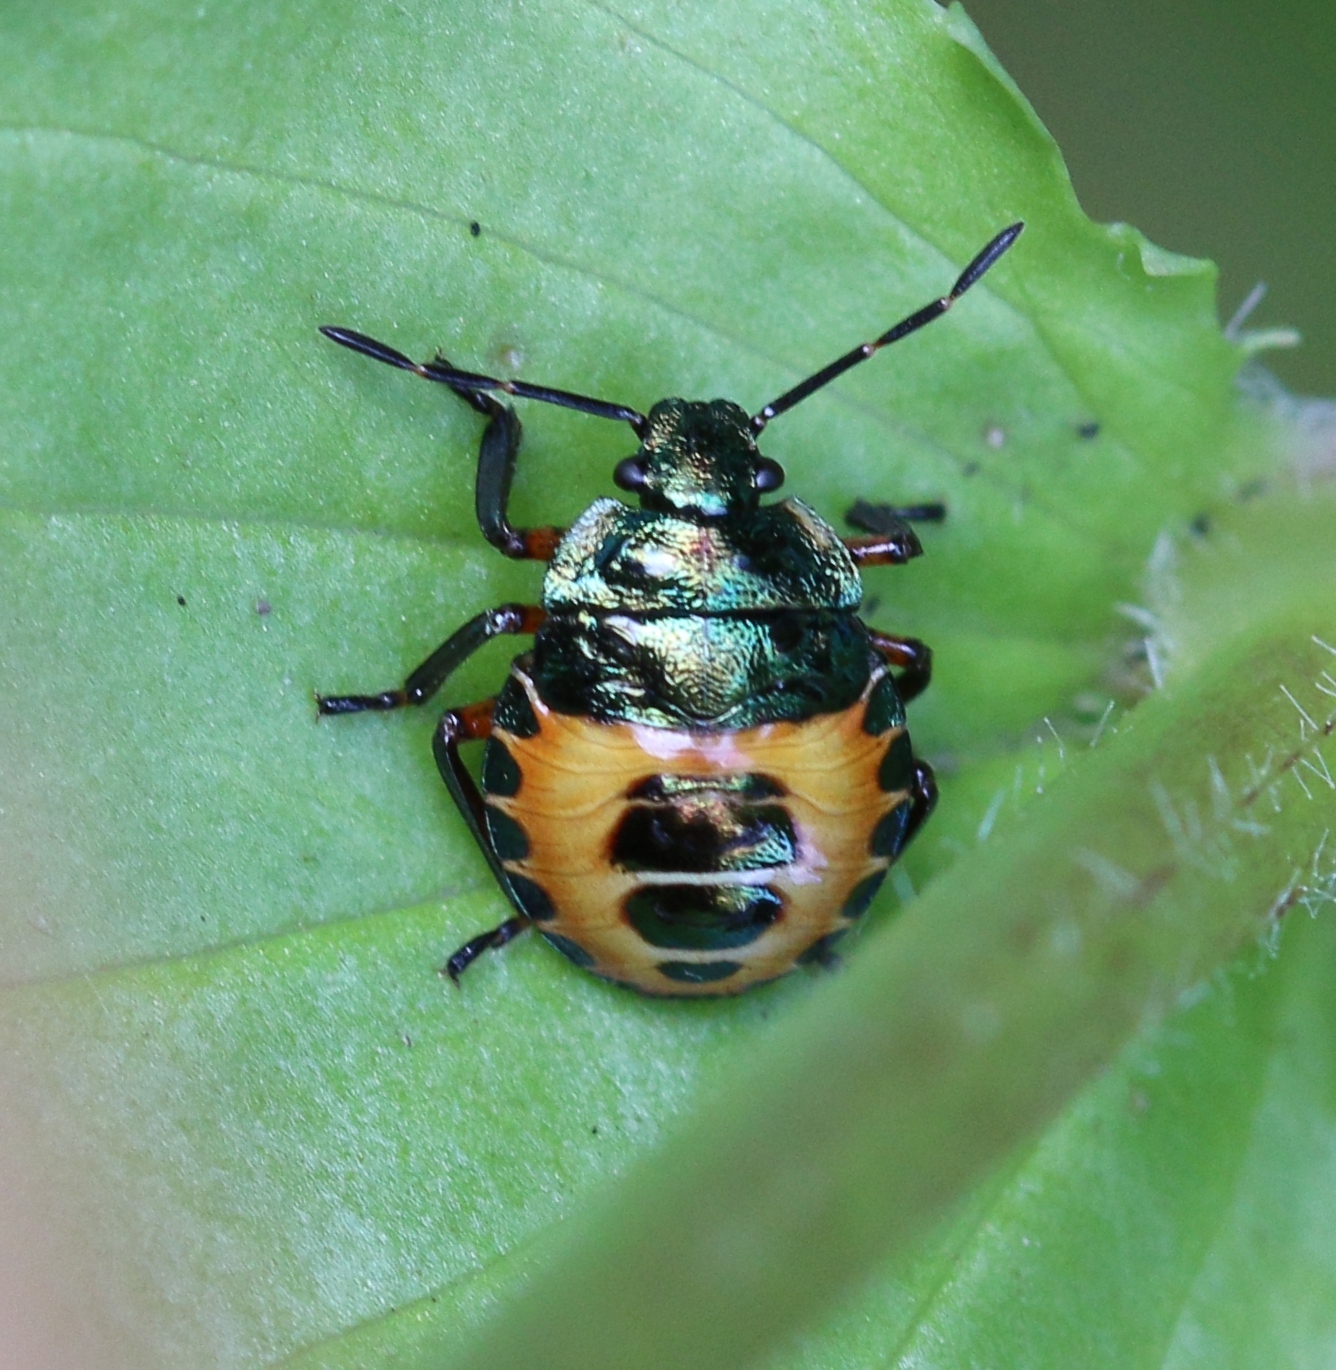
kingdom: Animalia
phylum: Arthropoda
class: Insecta
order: Hemiptera
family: Pentatomidae
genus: Troilus
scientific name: Troilus luridus
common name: Bronze shieldbug
